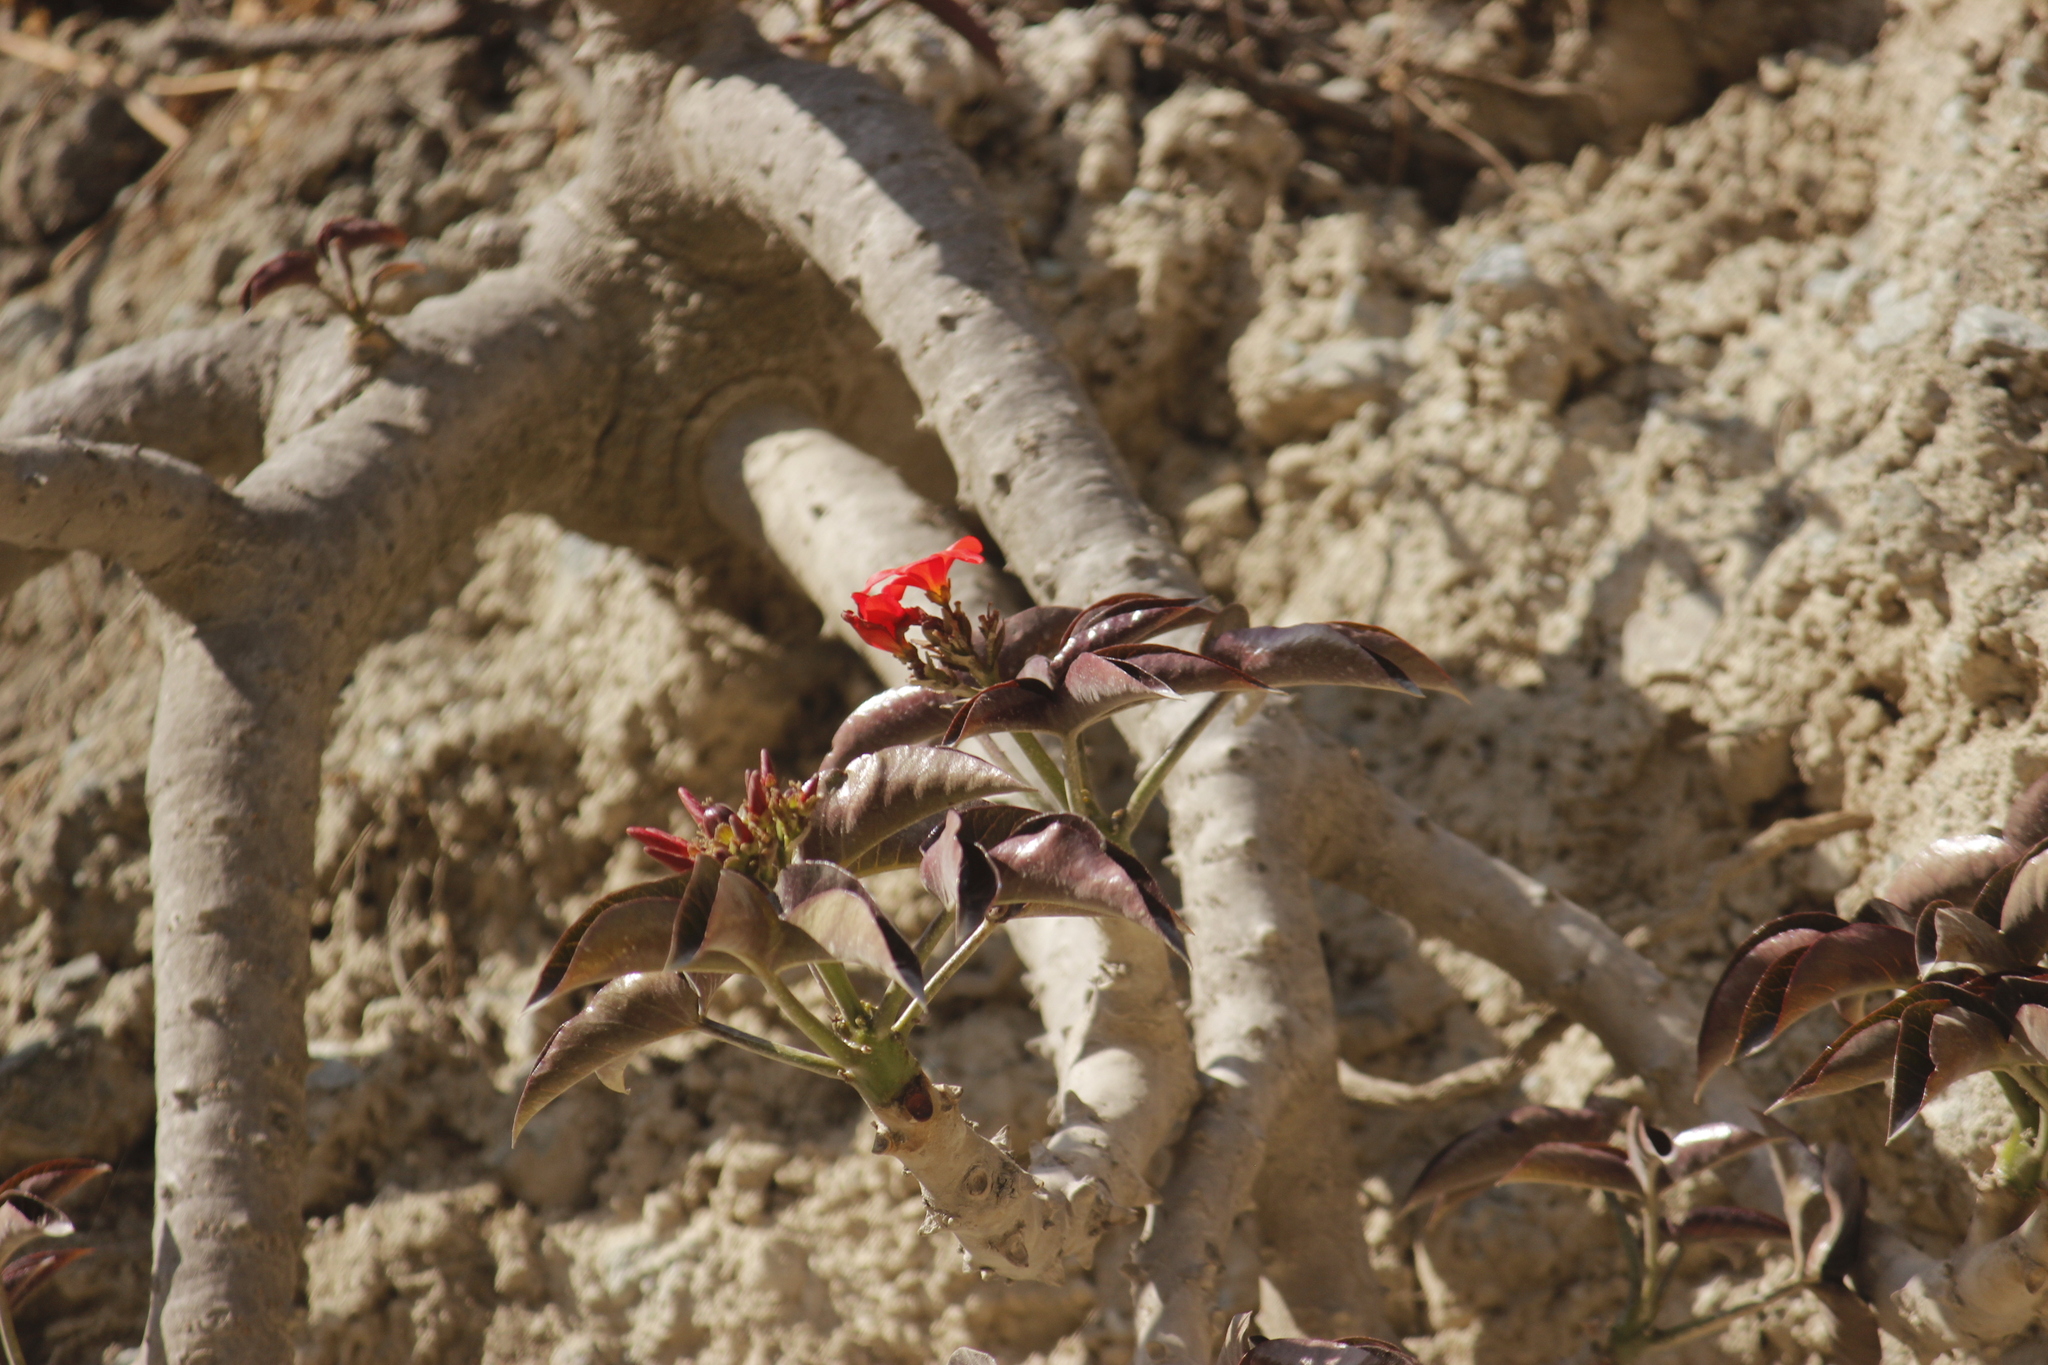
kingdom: Plantae
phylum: Tracheophyta
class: Magnoliopsida
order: Malpighiales
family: Euphorbiaceae
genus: Jatropha
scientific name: Jatropha macrantha
